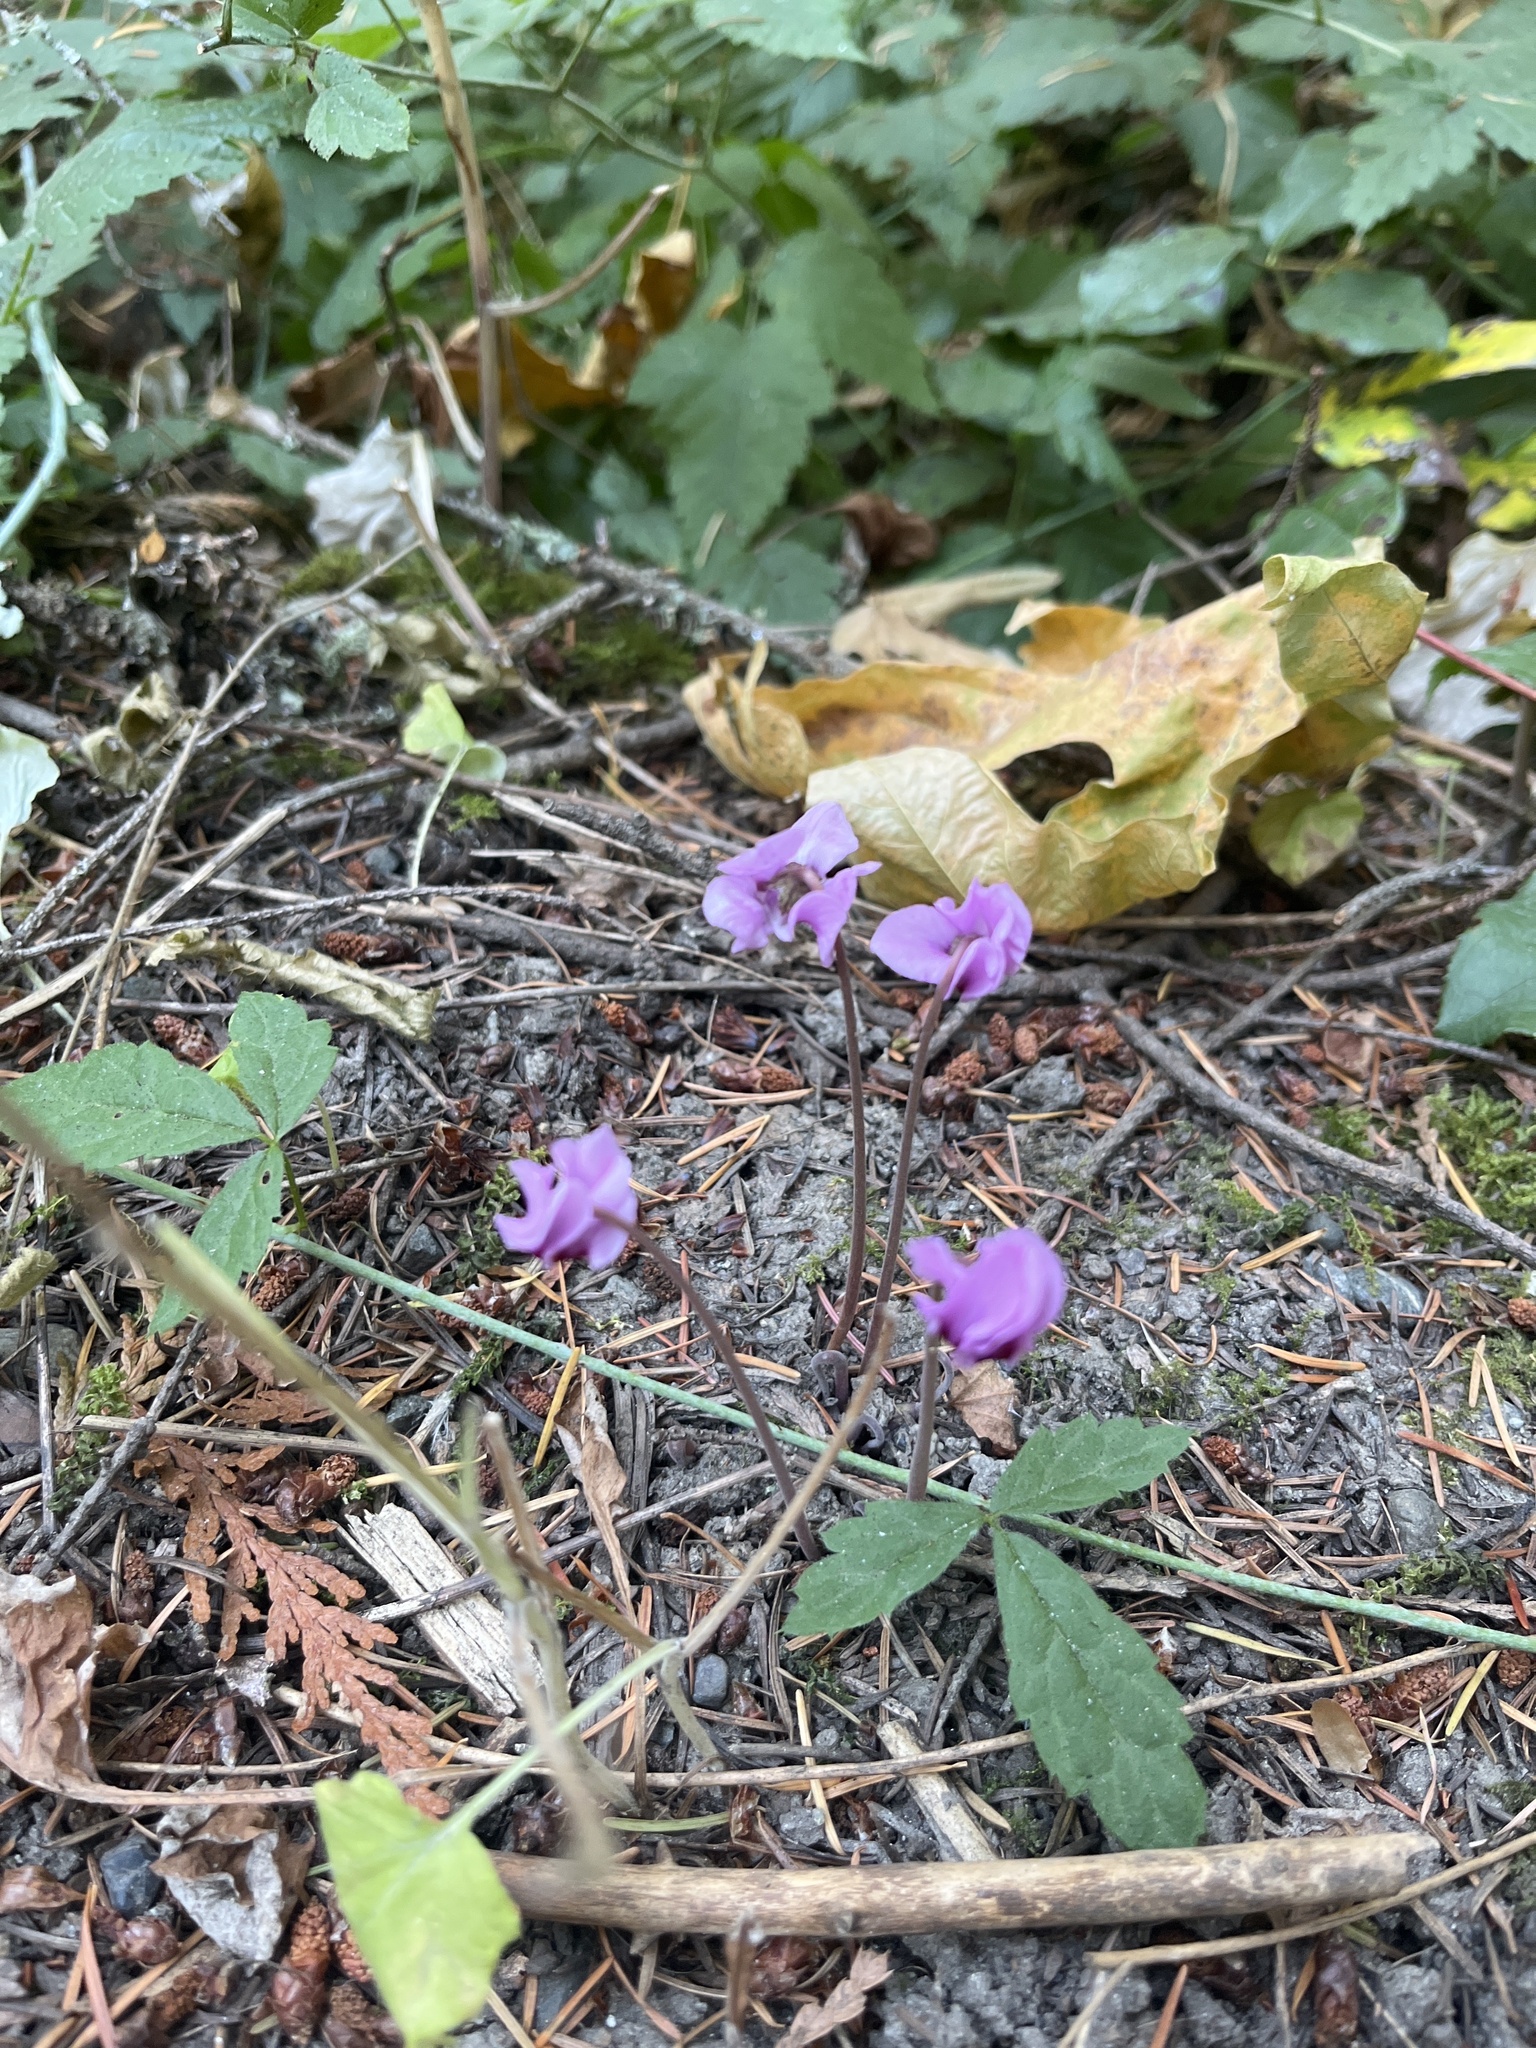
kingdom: Plantae
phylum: Tracheophyta
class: Magnoliopsida
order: Ericales
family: Primulaceae
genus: Cyclamen
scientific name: Cyclamen hederifolium
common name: Sowbread
